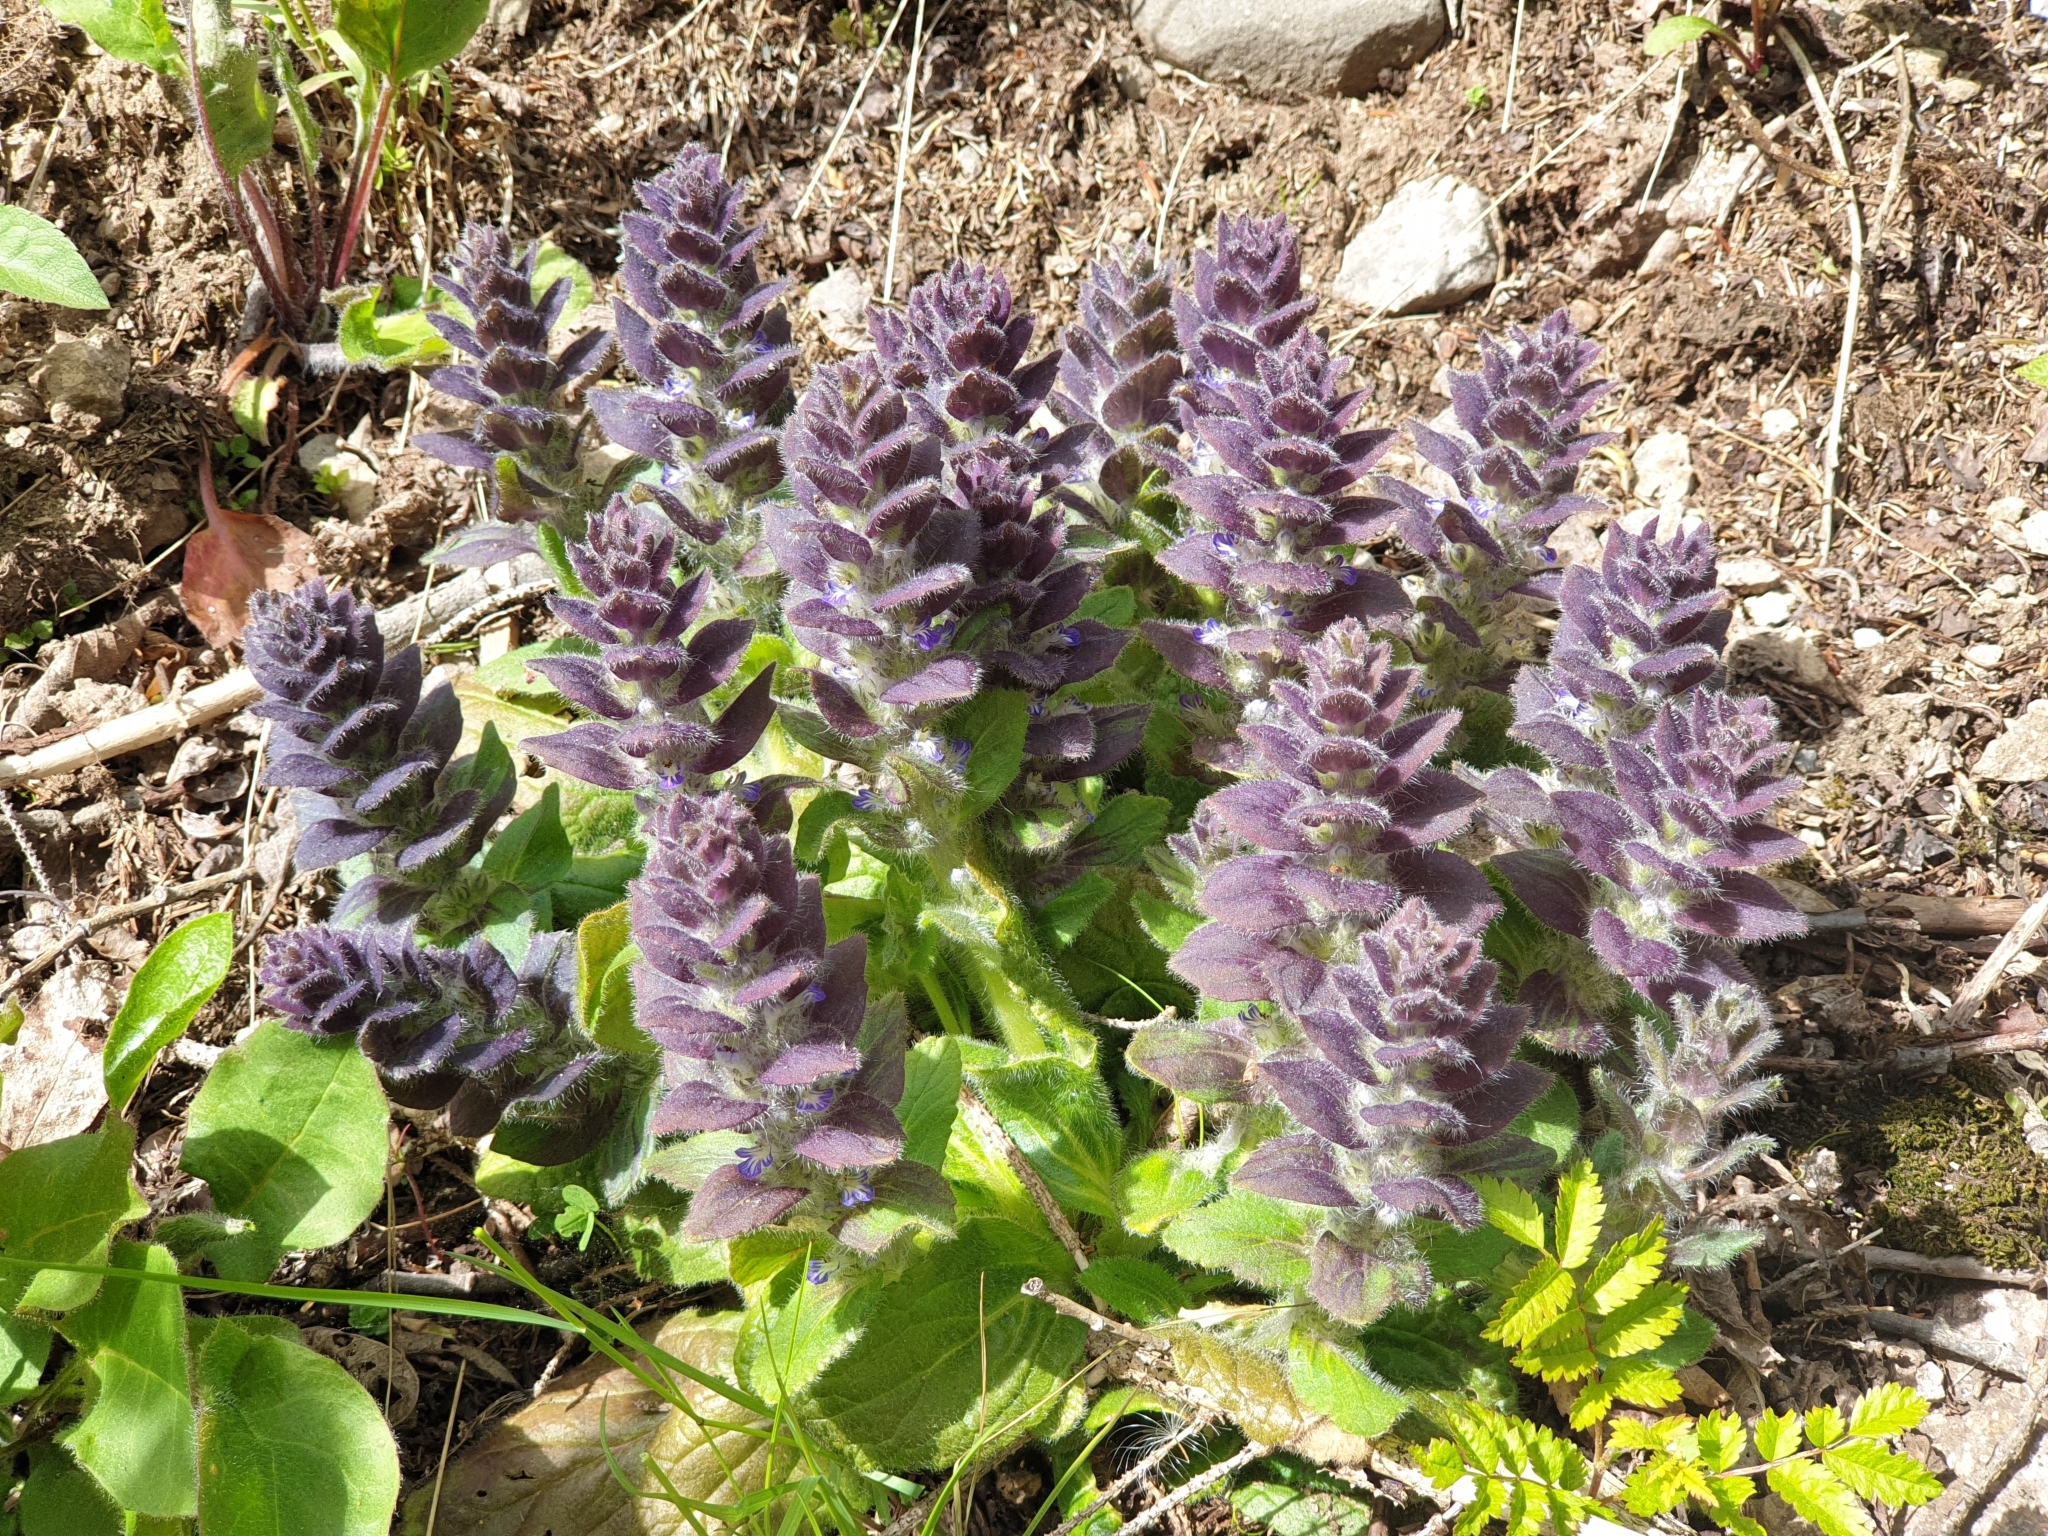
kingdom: Plantae
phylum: Tracheophyta
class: Magnoliopsida
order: Lamiales
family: Lamiaceae
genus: Ajuga
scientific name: Ajuga pyramidalis
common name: Pyramid bugle
